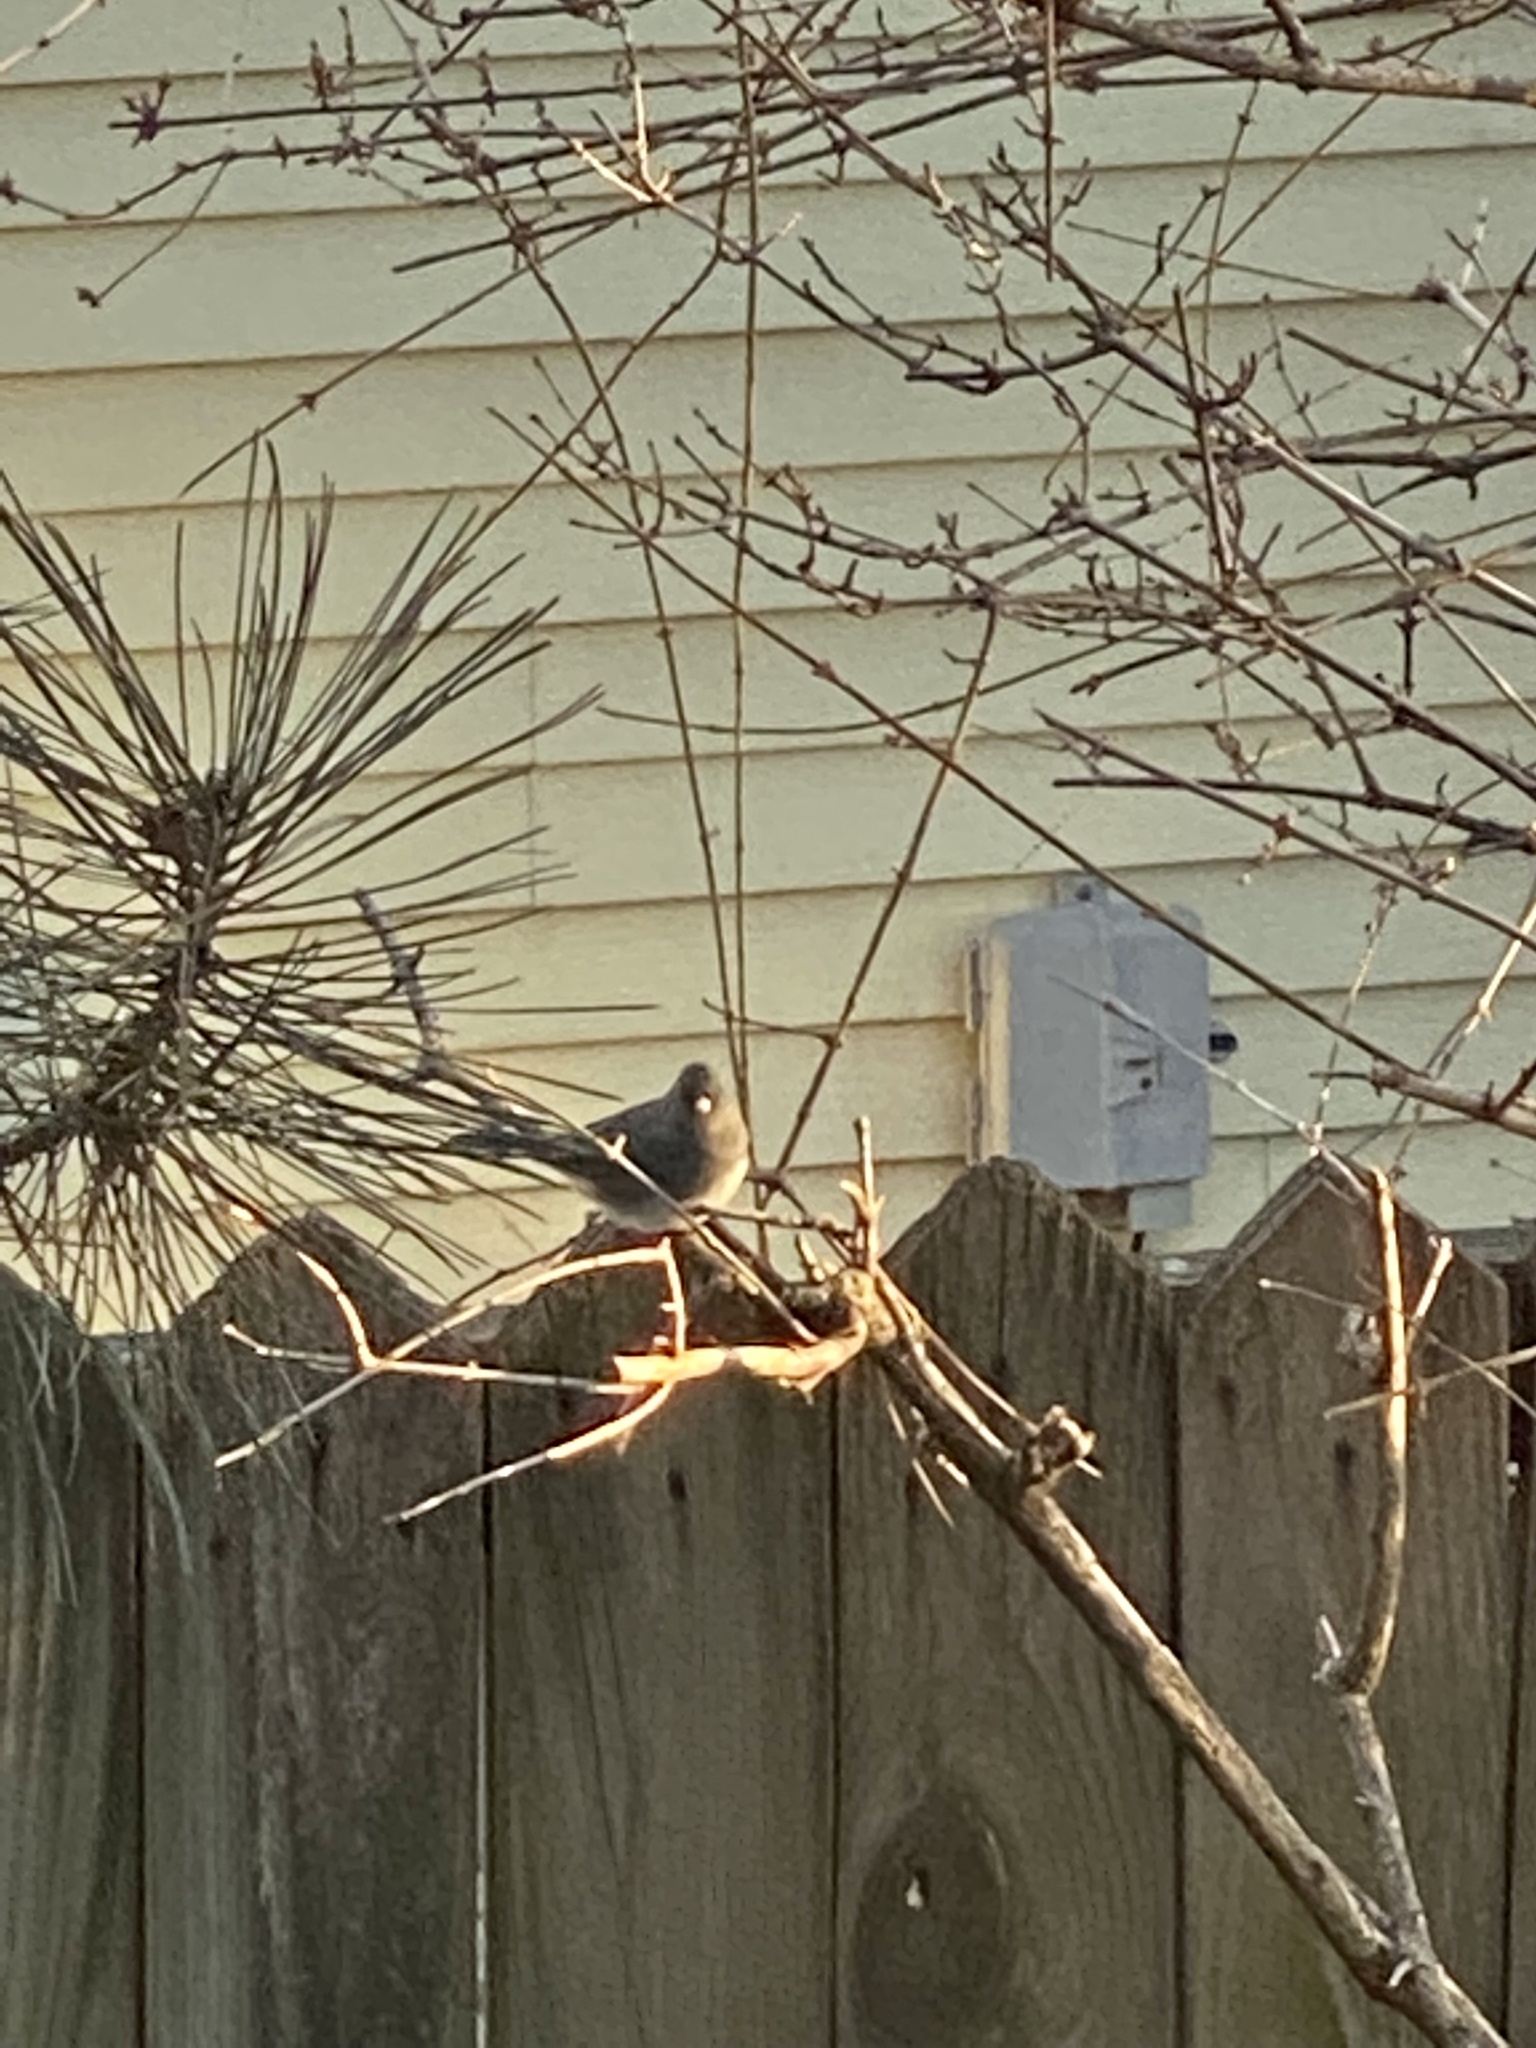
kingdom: Animalia
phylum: Chordata
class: Aves
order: Passeriformes
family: Passerellidae
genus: Junco
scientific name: Junco hyemalis
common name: Dark-eyed junco
